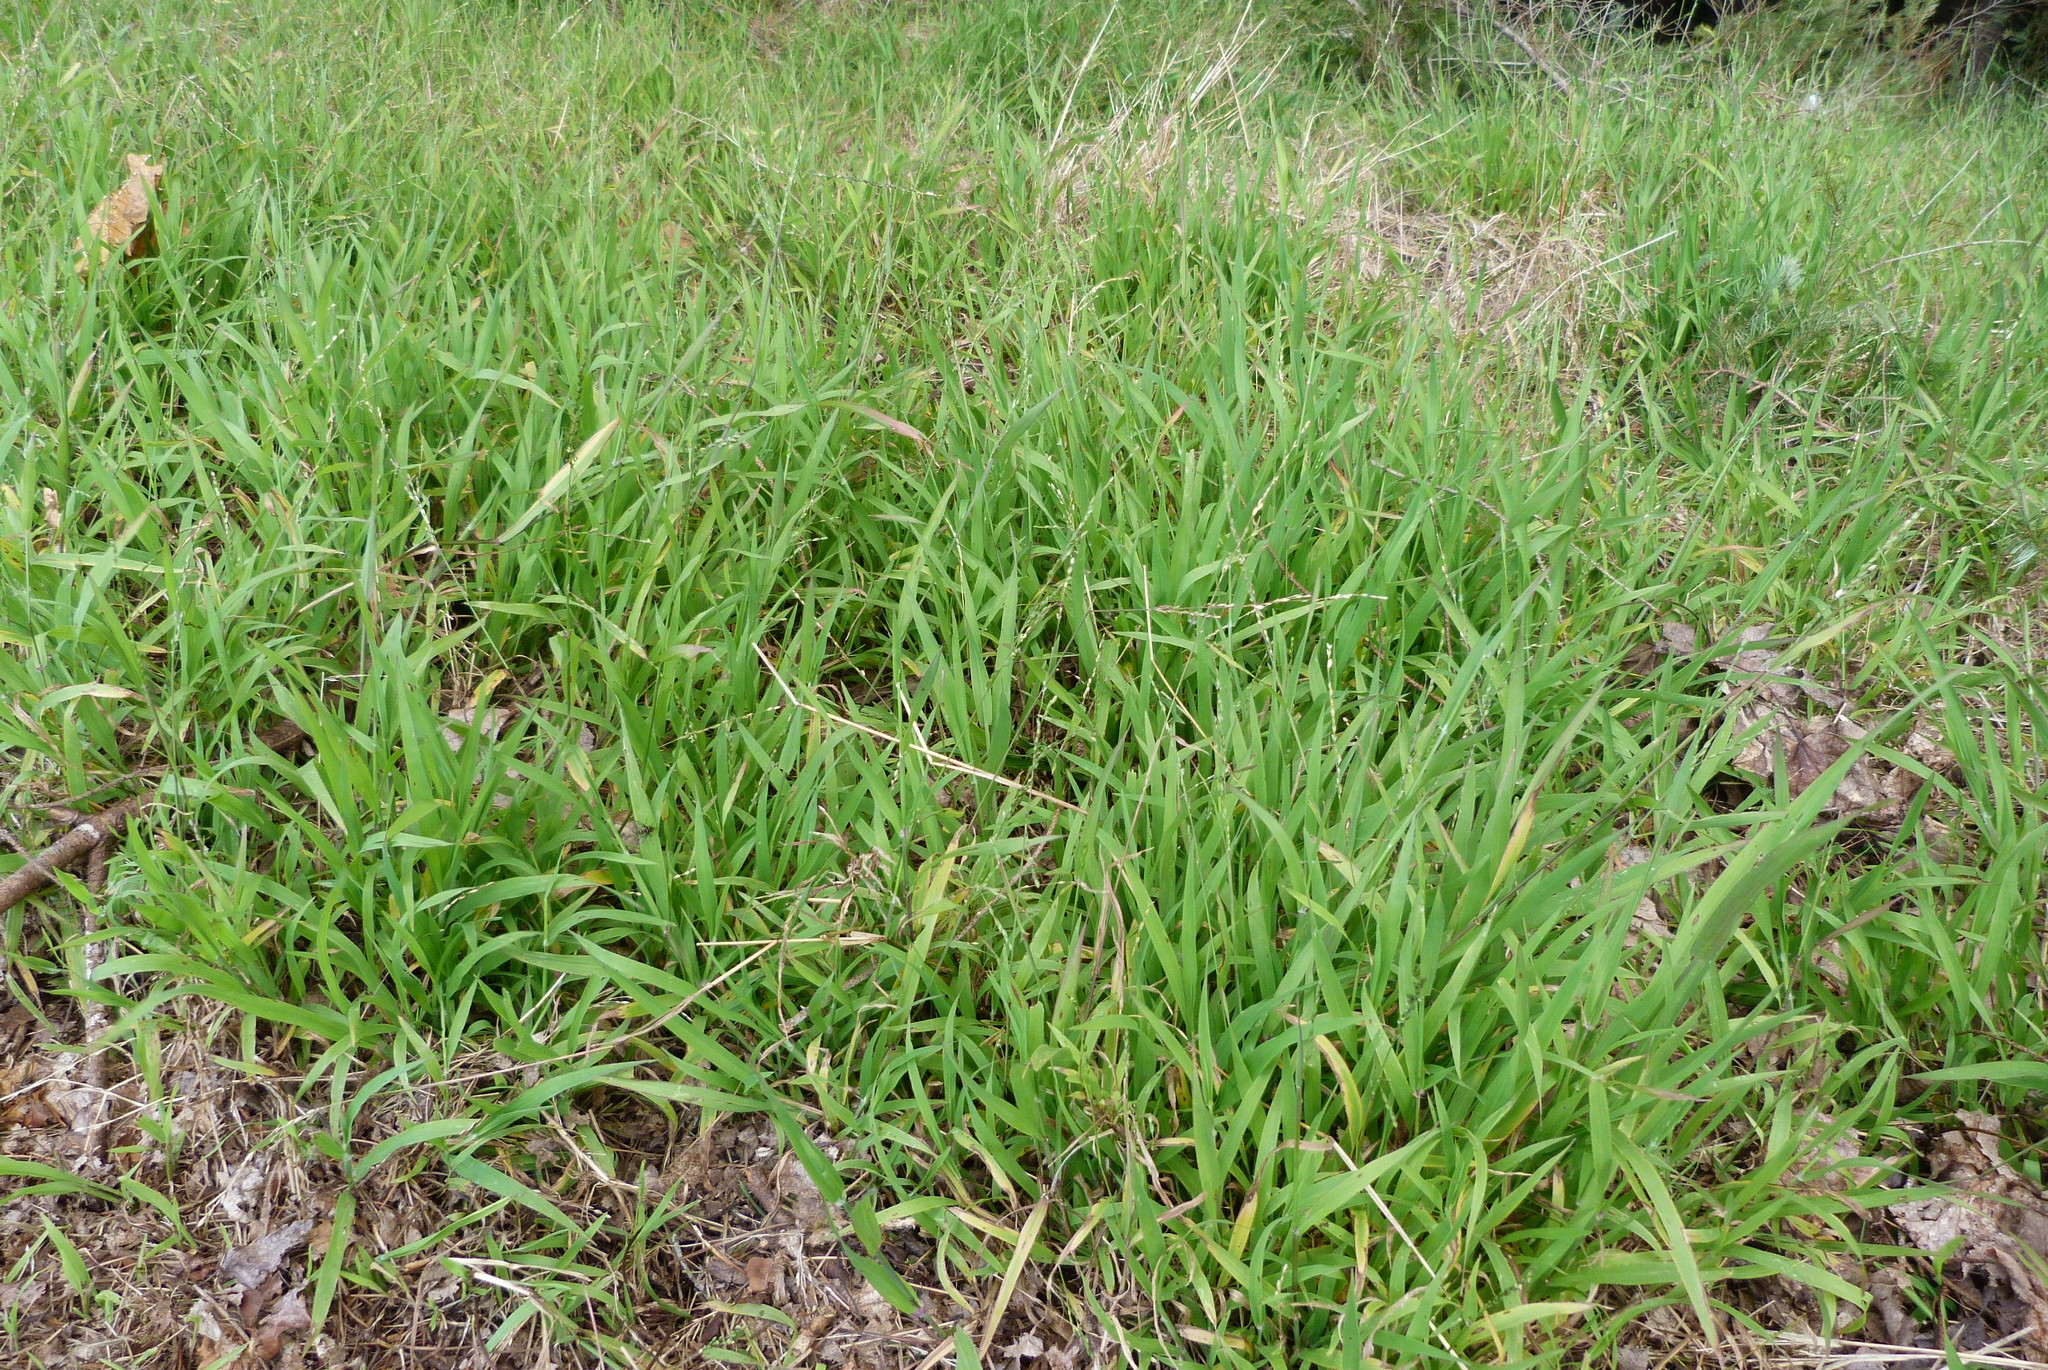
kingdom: Plantae
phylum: Tracheophyta
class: Liliopsida
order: Poales
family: Poaceae
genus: Ehrharta
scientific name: Ehrharta erecta
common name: Panic veldtgrass
